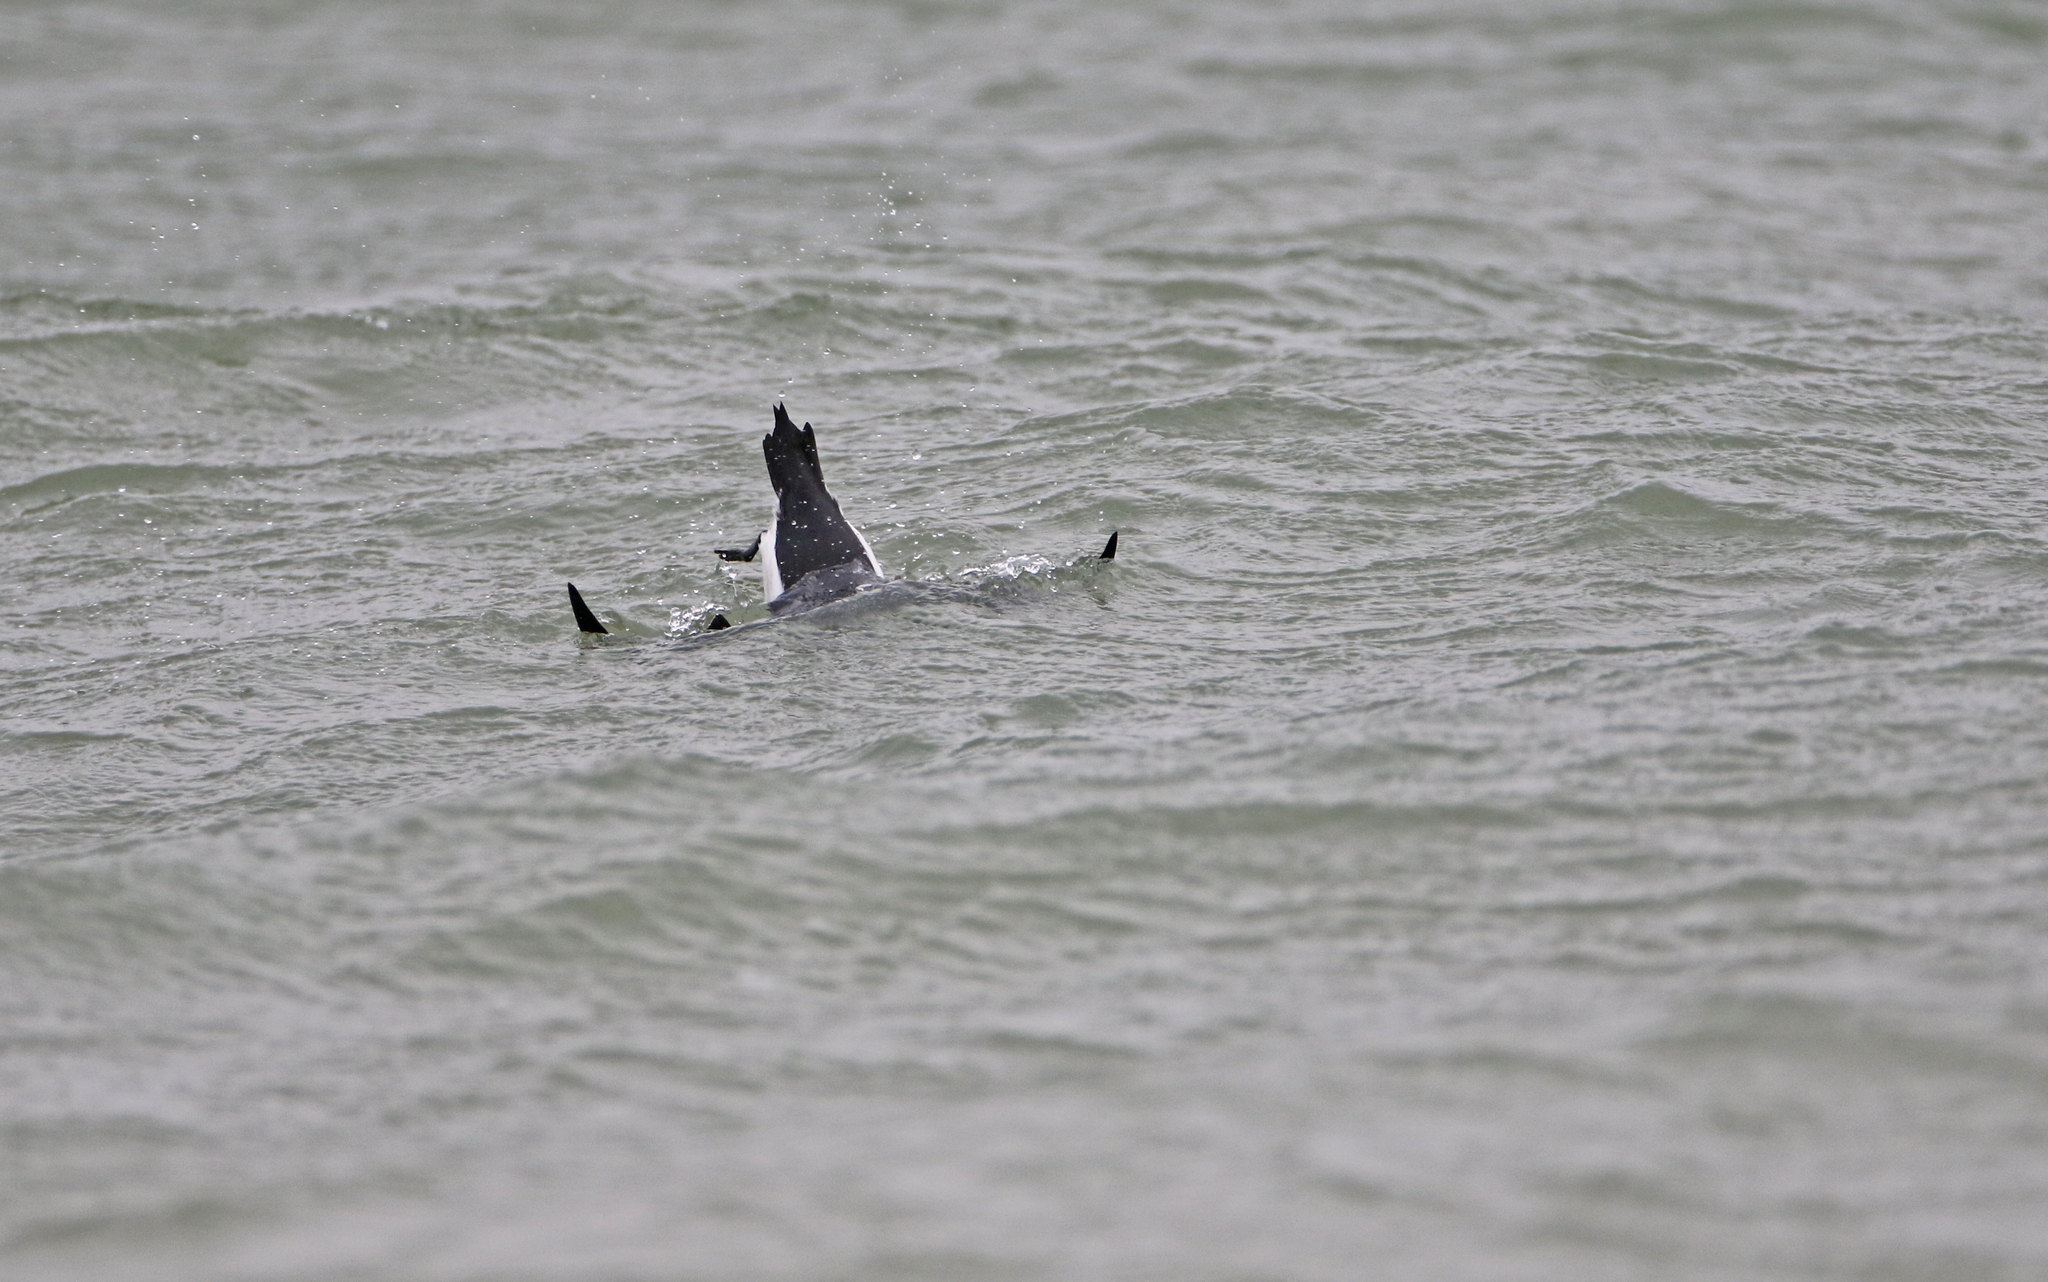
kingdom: Animalia
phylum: Chordata
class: Aves
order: Charadriiformes
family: Alcidae
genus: Alca
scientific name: Alca torda
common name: Razorbill
